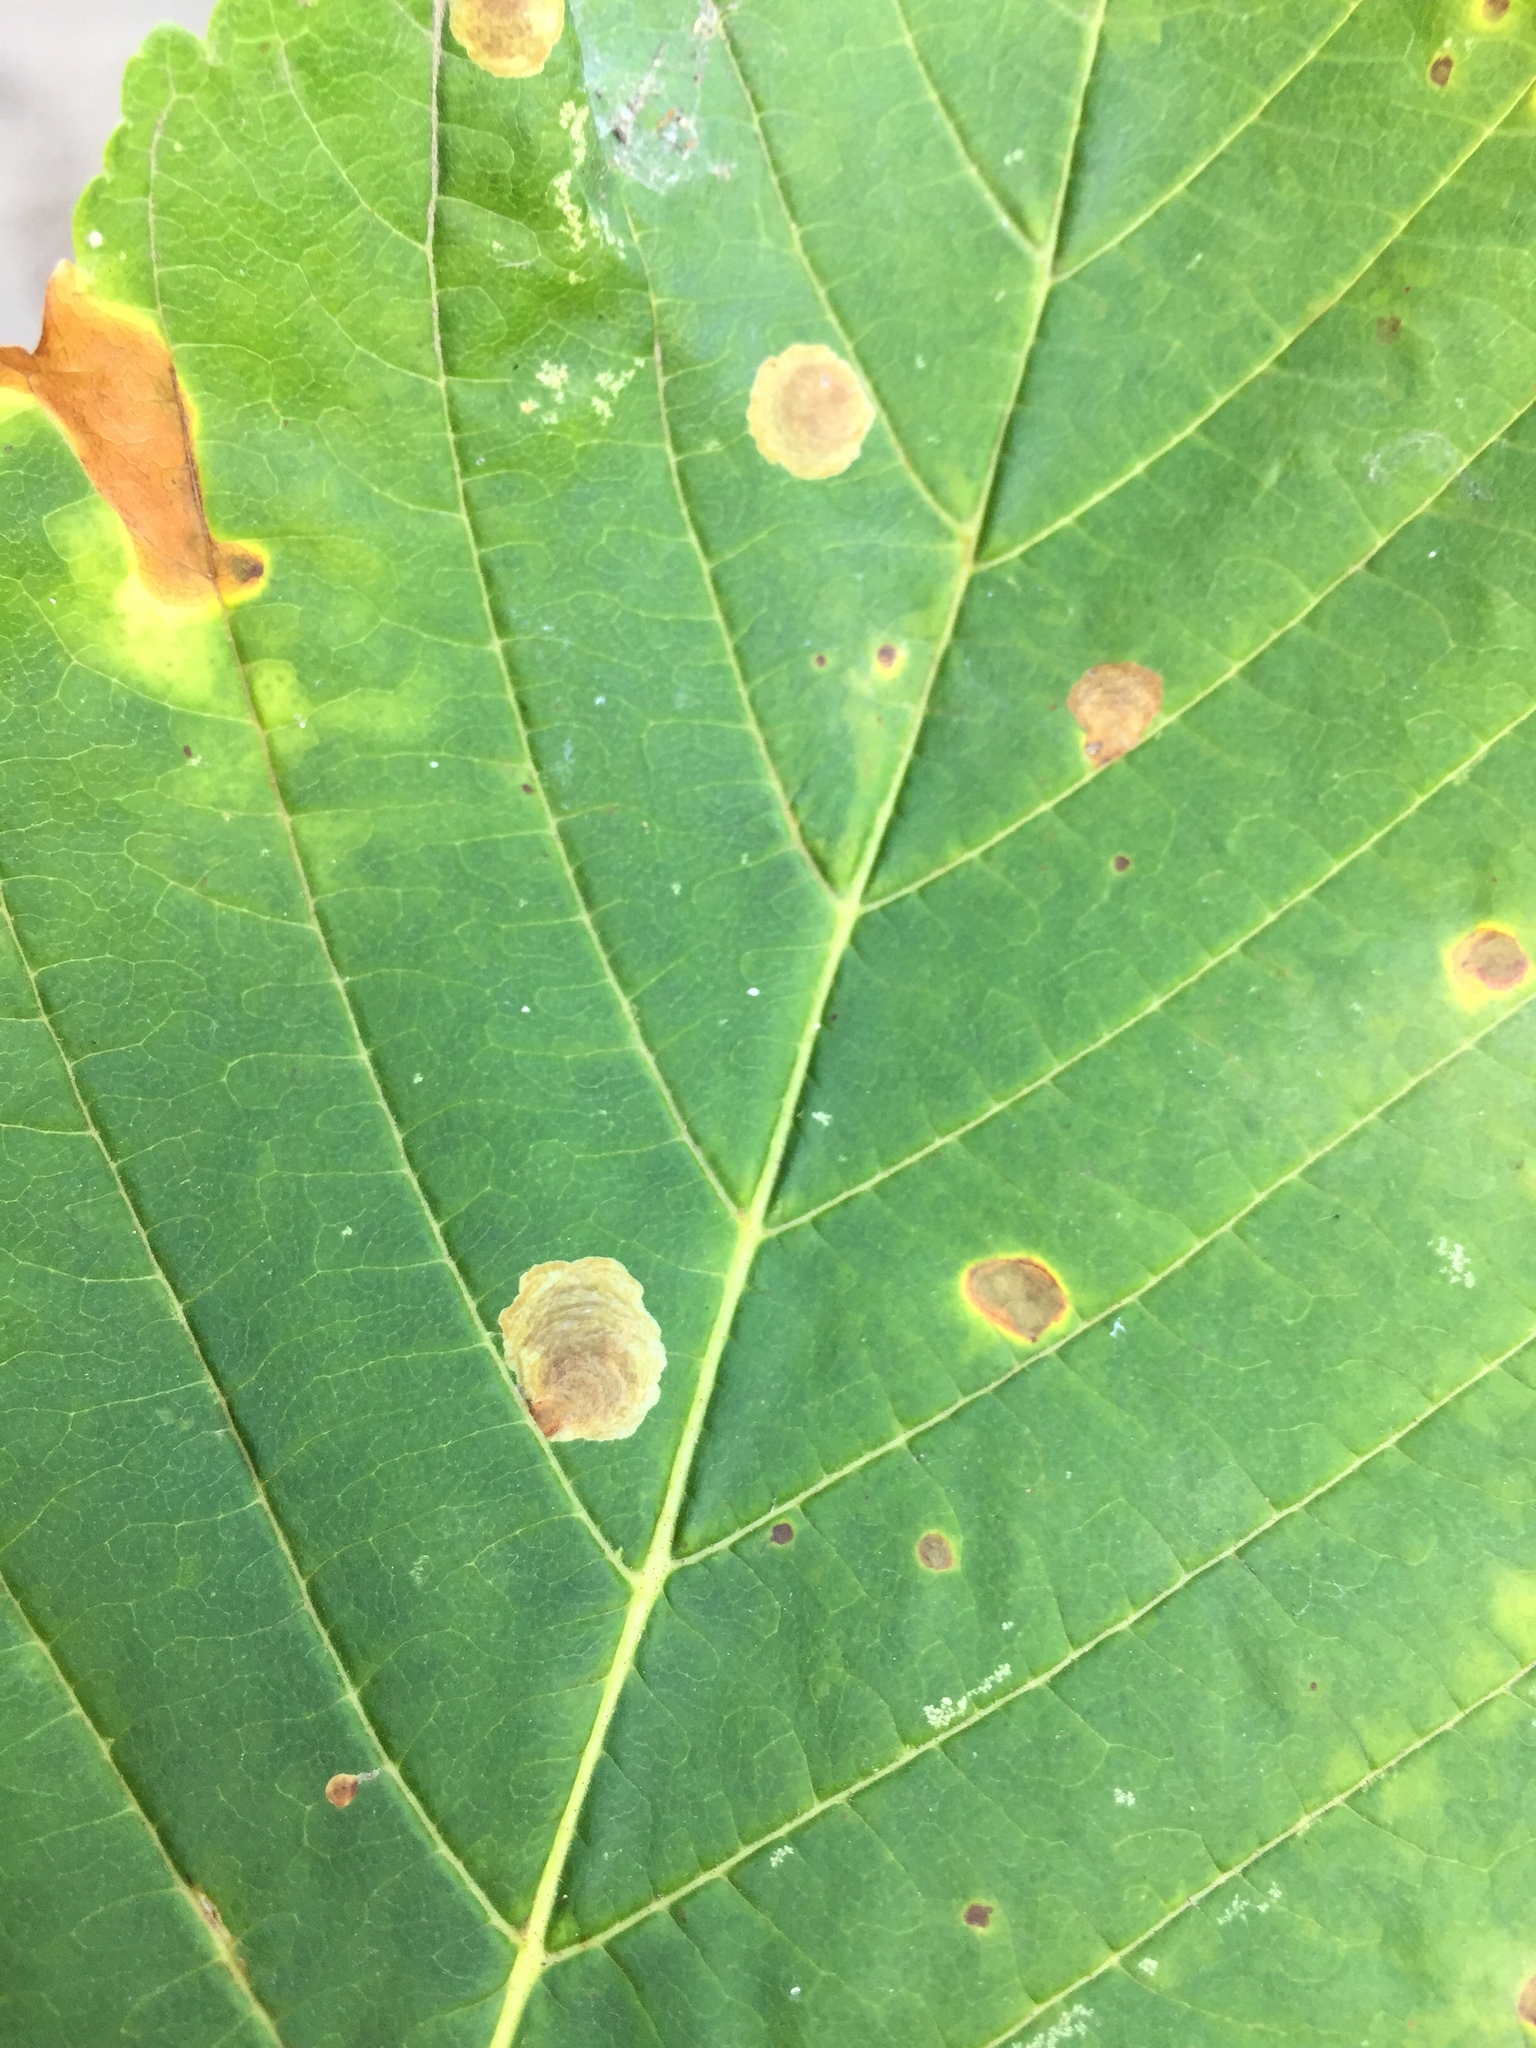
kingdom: Animalia
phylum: Arthropoda
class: Insecta
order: Lepidoptera
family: Gracillariidae
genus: Cameraria
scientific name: Cameraria ohridella
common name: Horse-chestnut leaf-miner
